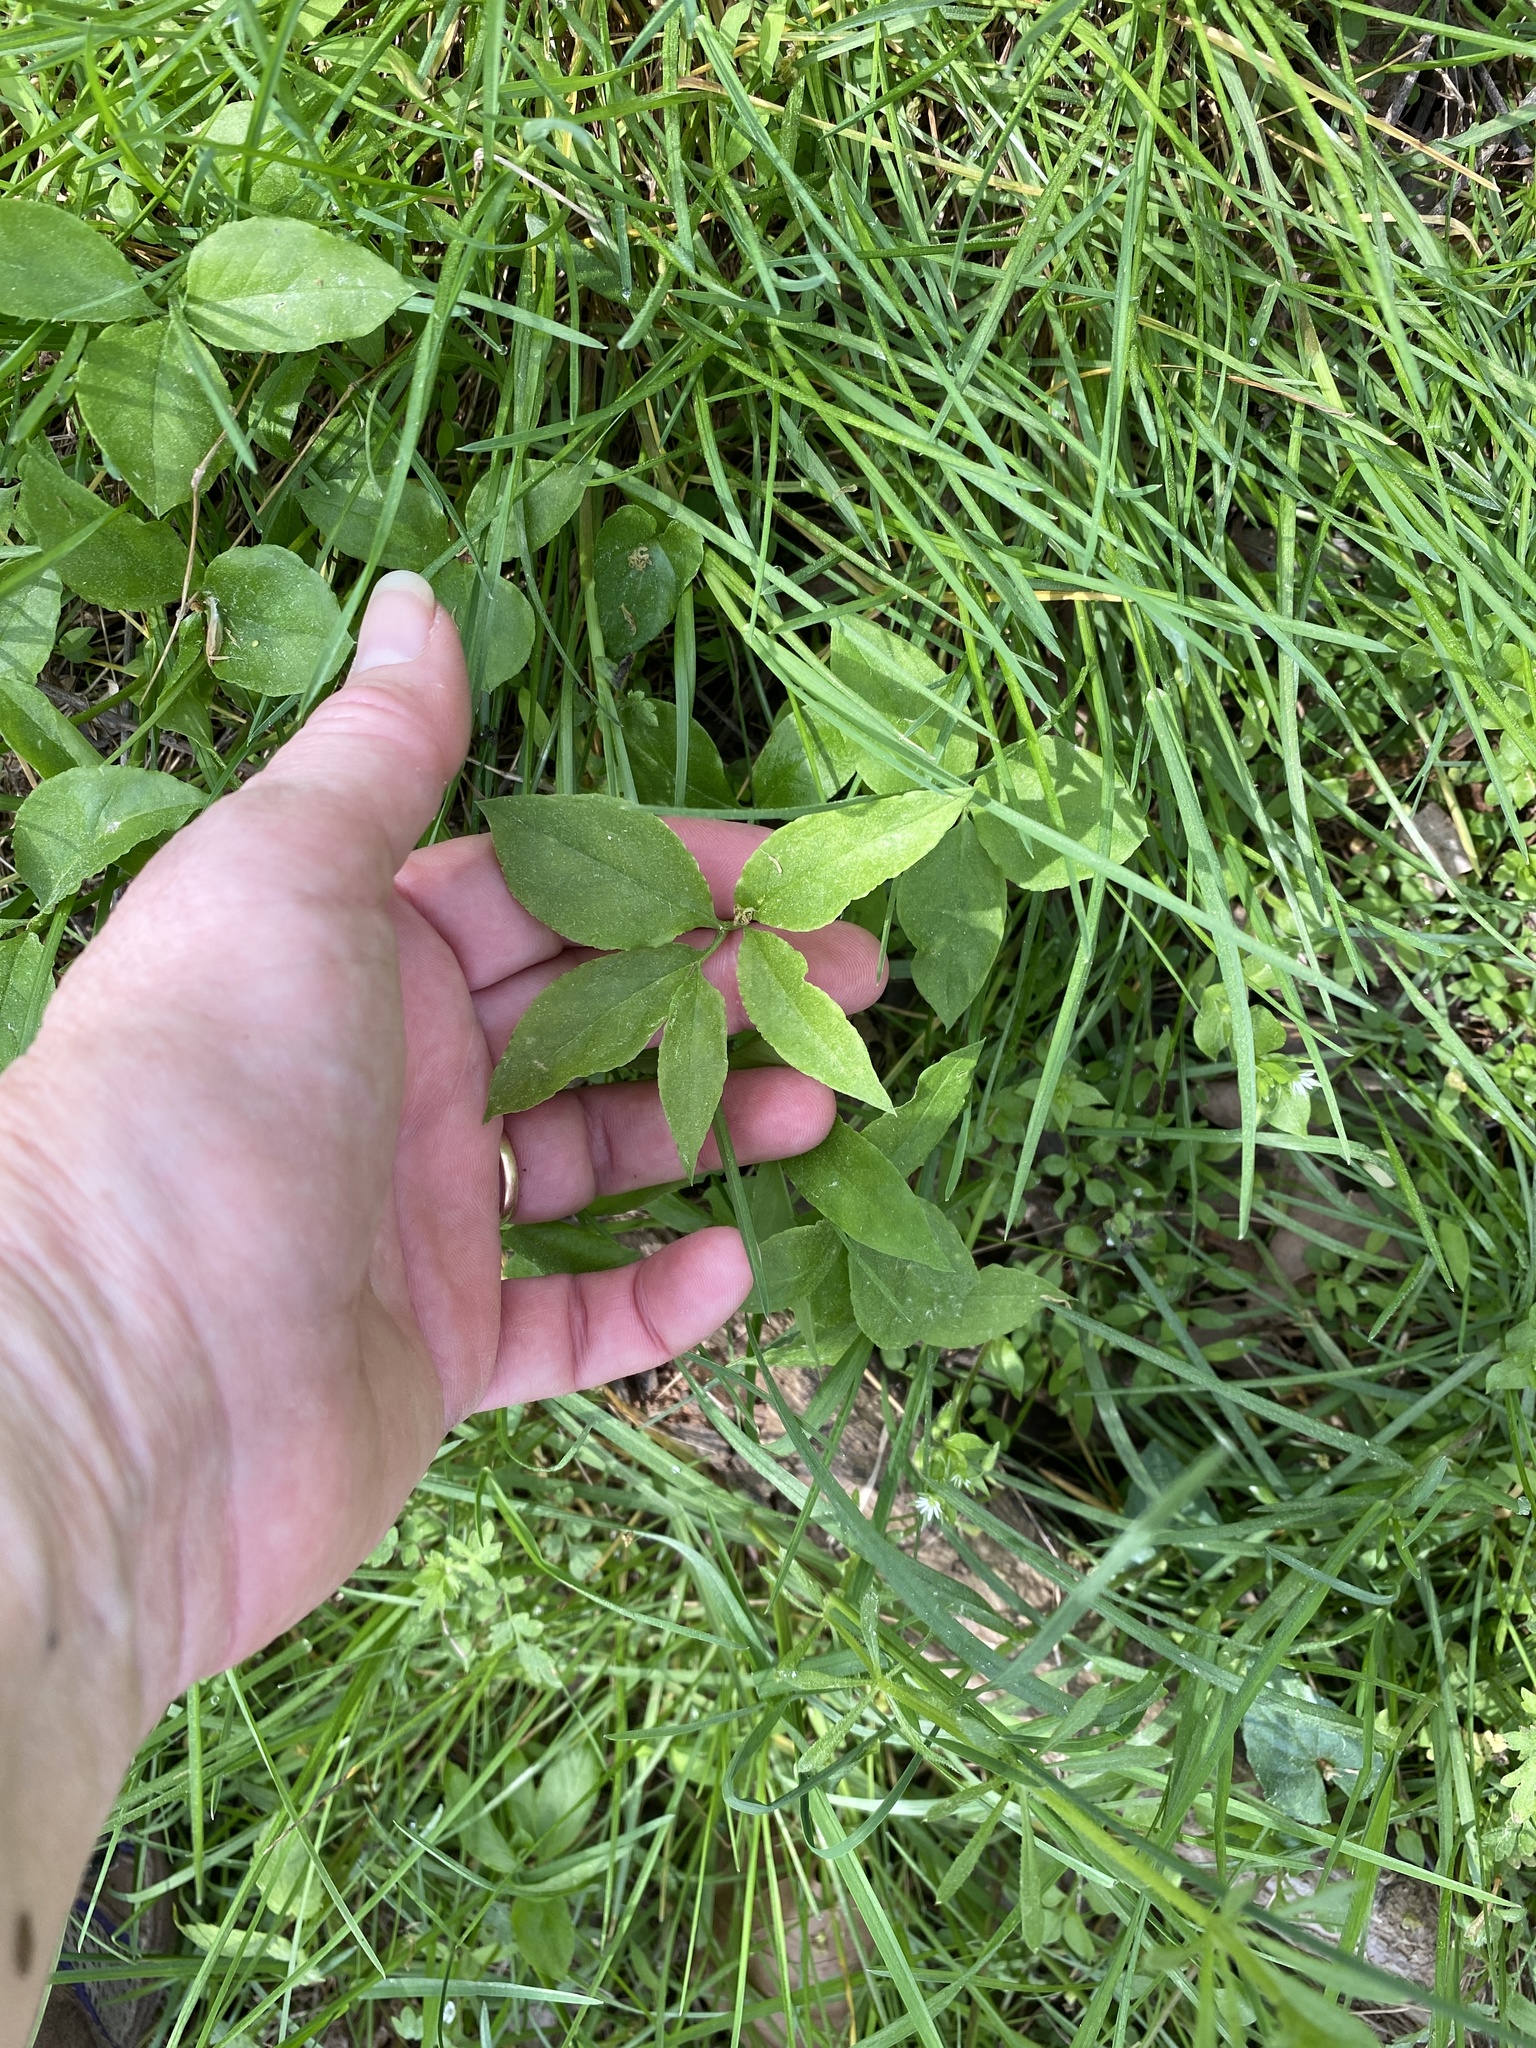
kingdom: Plantae
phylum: Tracheophyta
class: Liliopsida
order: Alismatales
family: Araceae
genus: Arisaema
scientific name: Arisaema dracontium
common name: Dragon-arum
